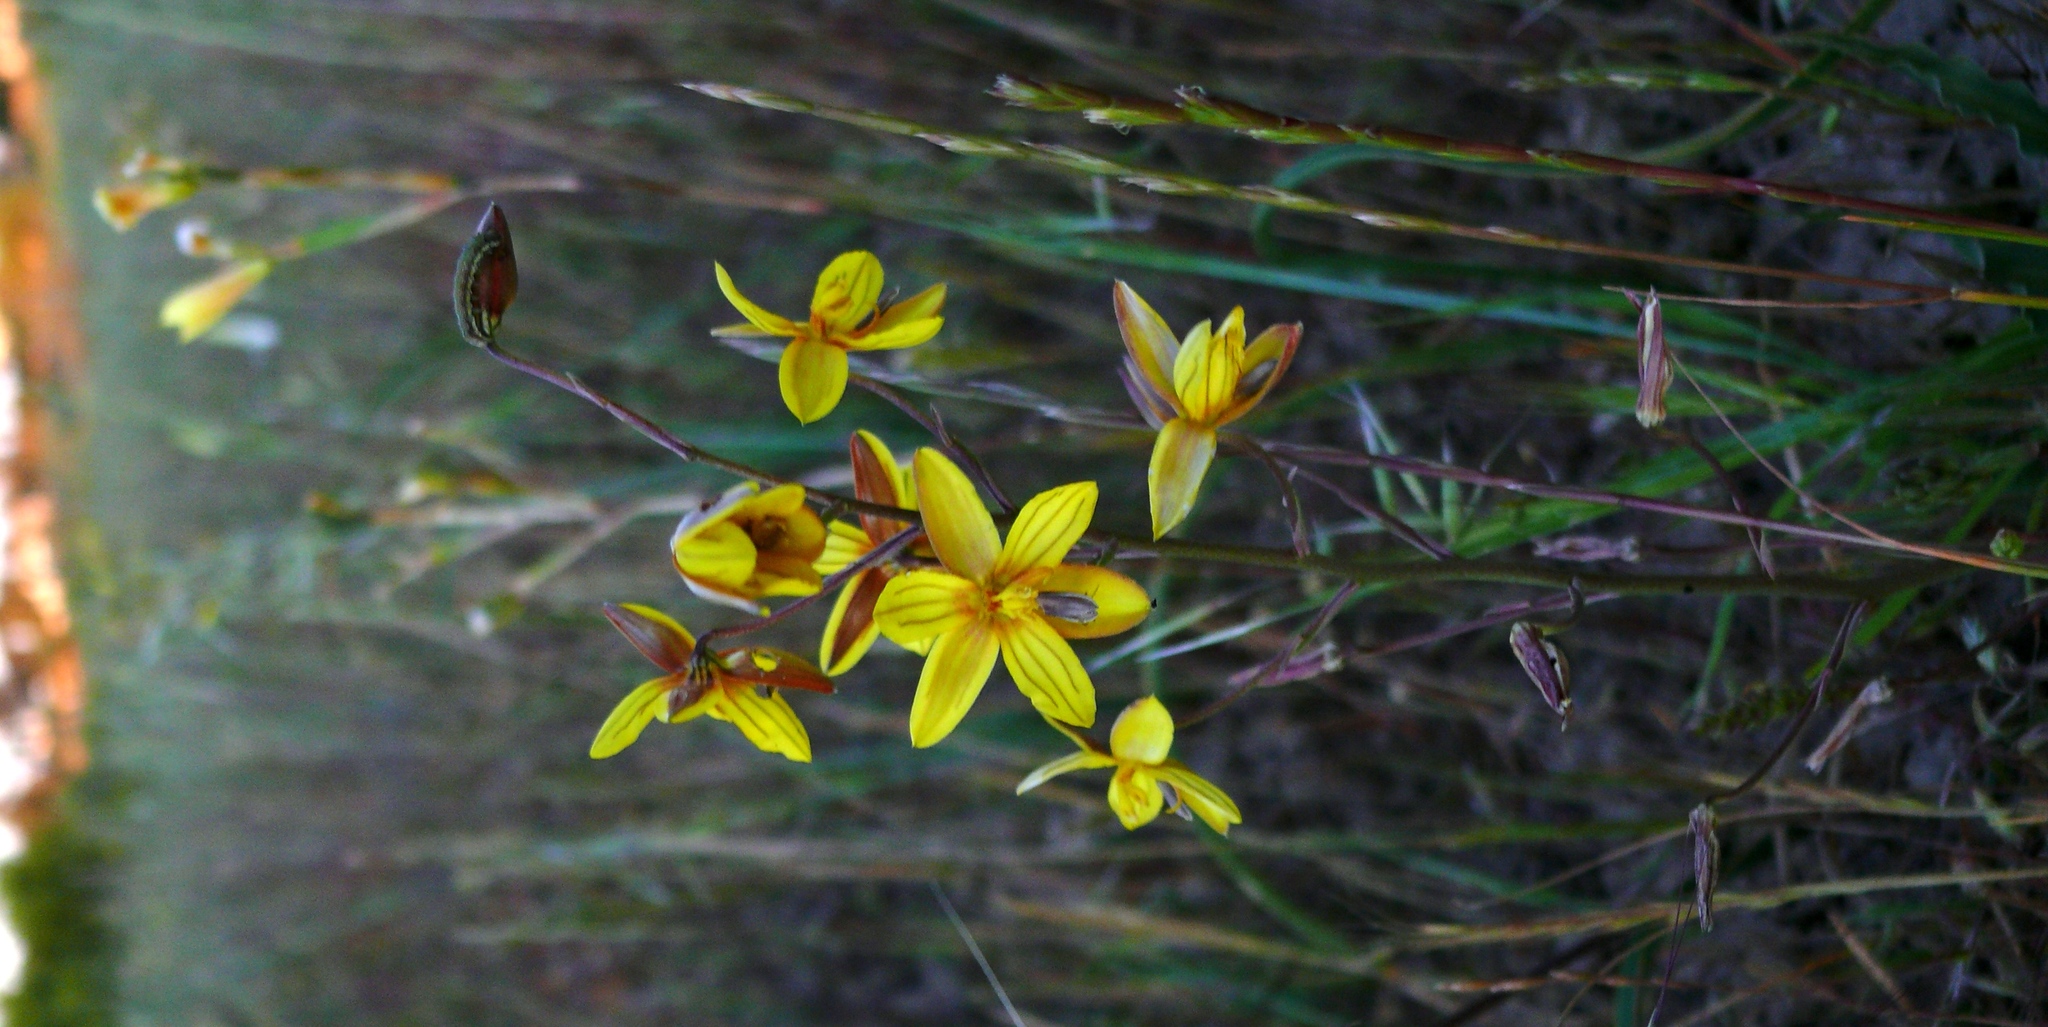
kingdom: Plantae
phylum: Tracheophyta
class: Liliopsida
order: Asparagales
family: Tecophilaeaceae
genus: Cyanella
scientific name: Cyanella lutea
